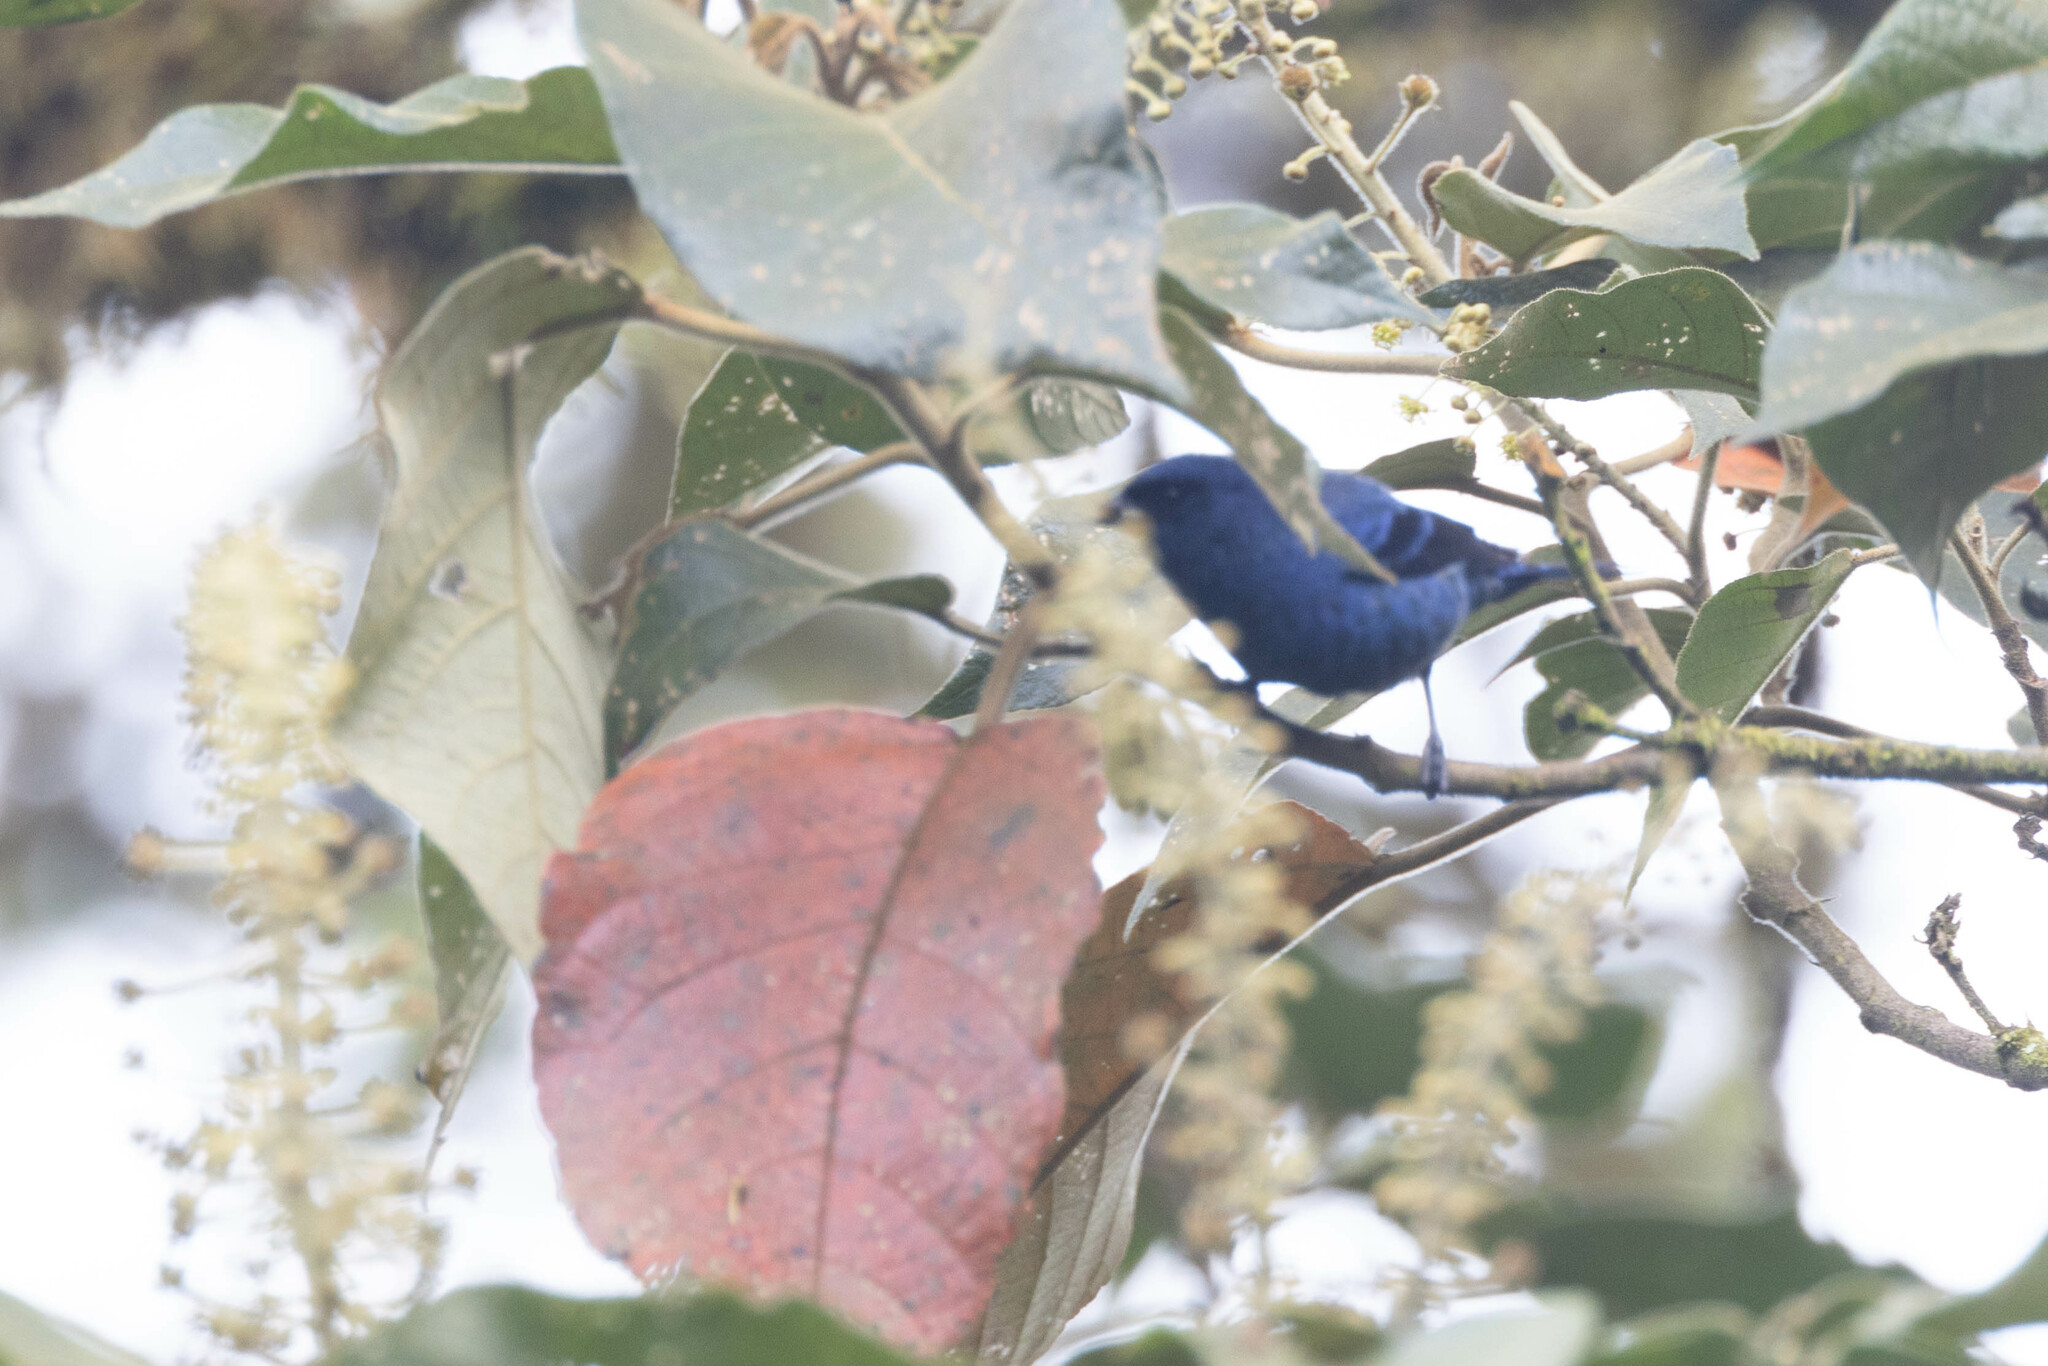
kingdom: Animalia
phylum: Chordata
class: Aves
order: Passeriformes
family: Thraupidae
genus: Tangara
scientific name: Tangara vassorii
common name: Blue-and-black tanager
